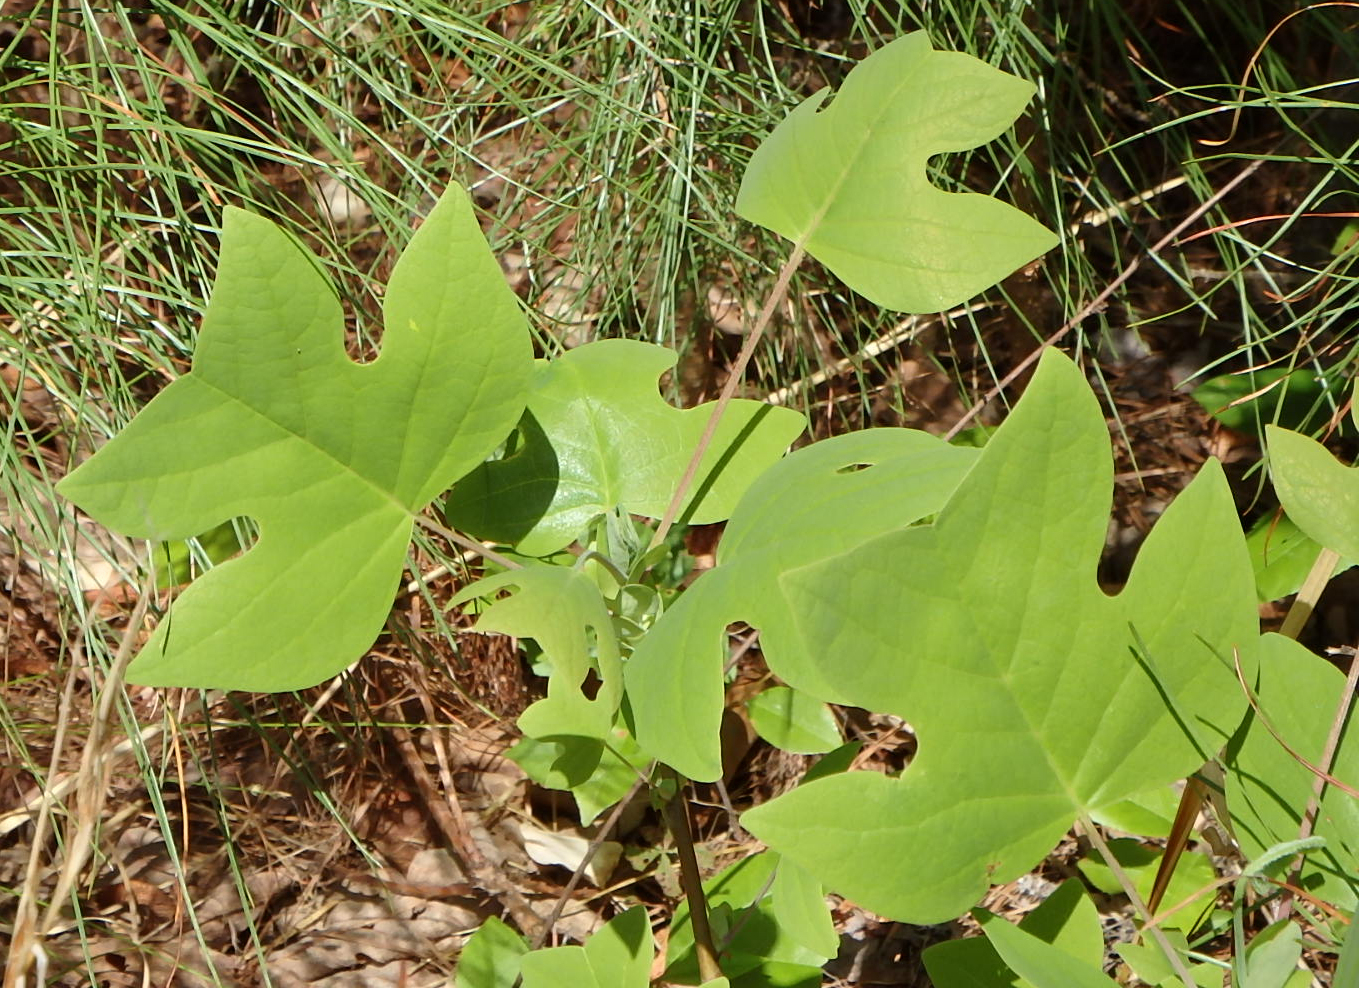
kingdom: Plantae
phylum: Tracheophyta
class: Magnoliopsida
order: Magnoliales
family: Magnoliaceae
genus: Liriodendron
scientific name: Liriodendron tulipifera
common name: Tulip tree
